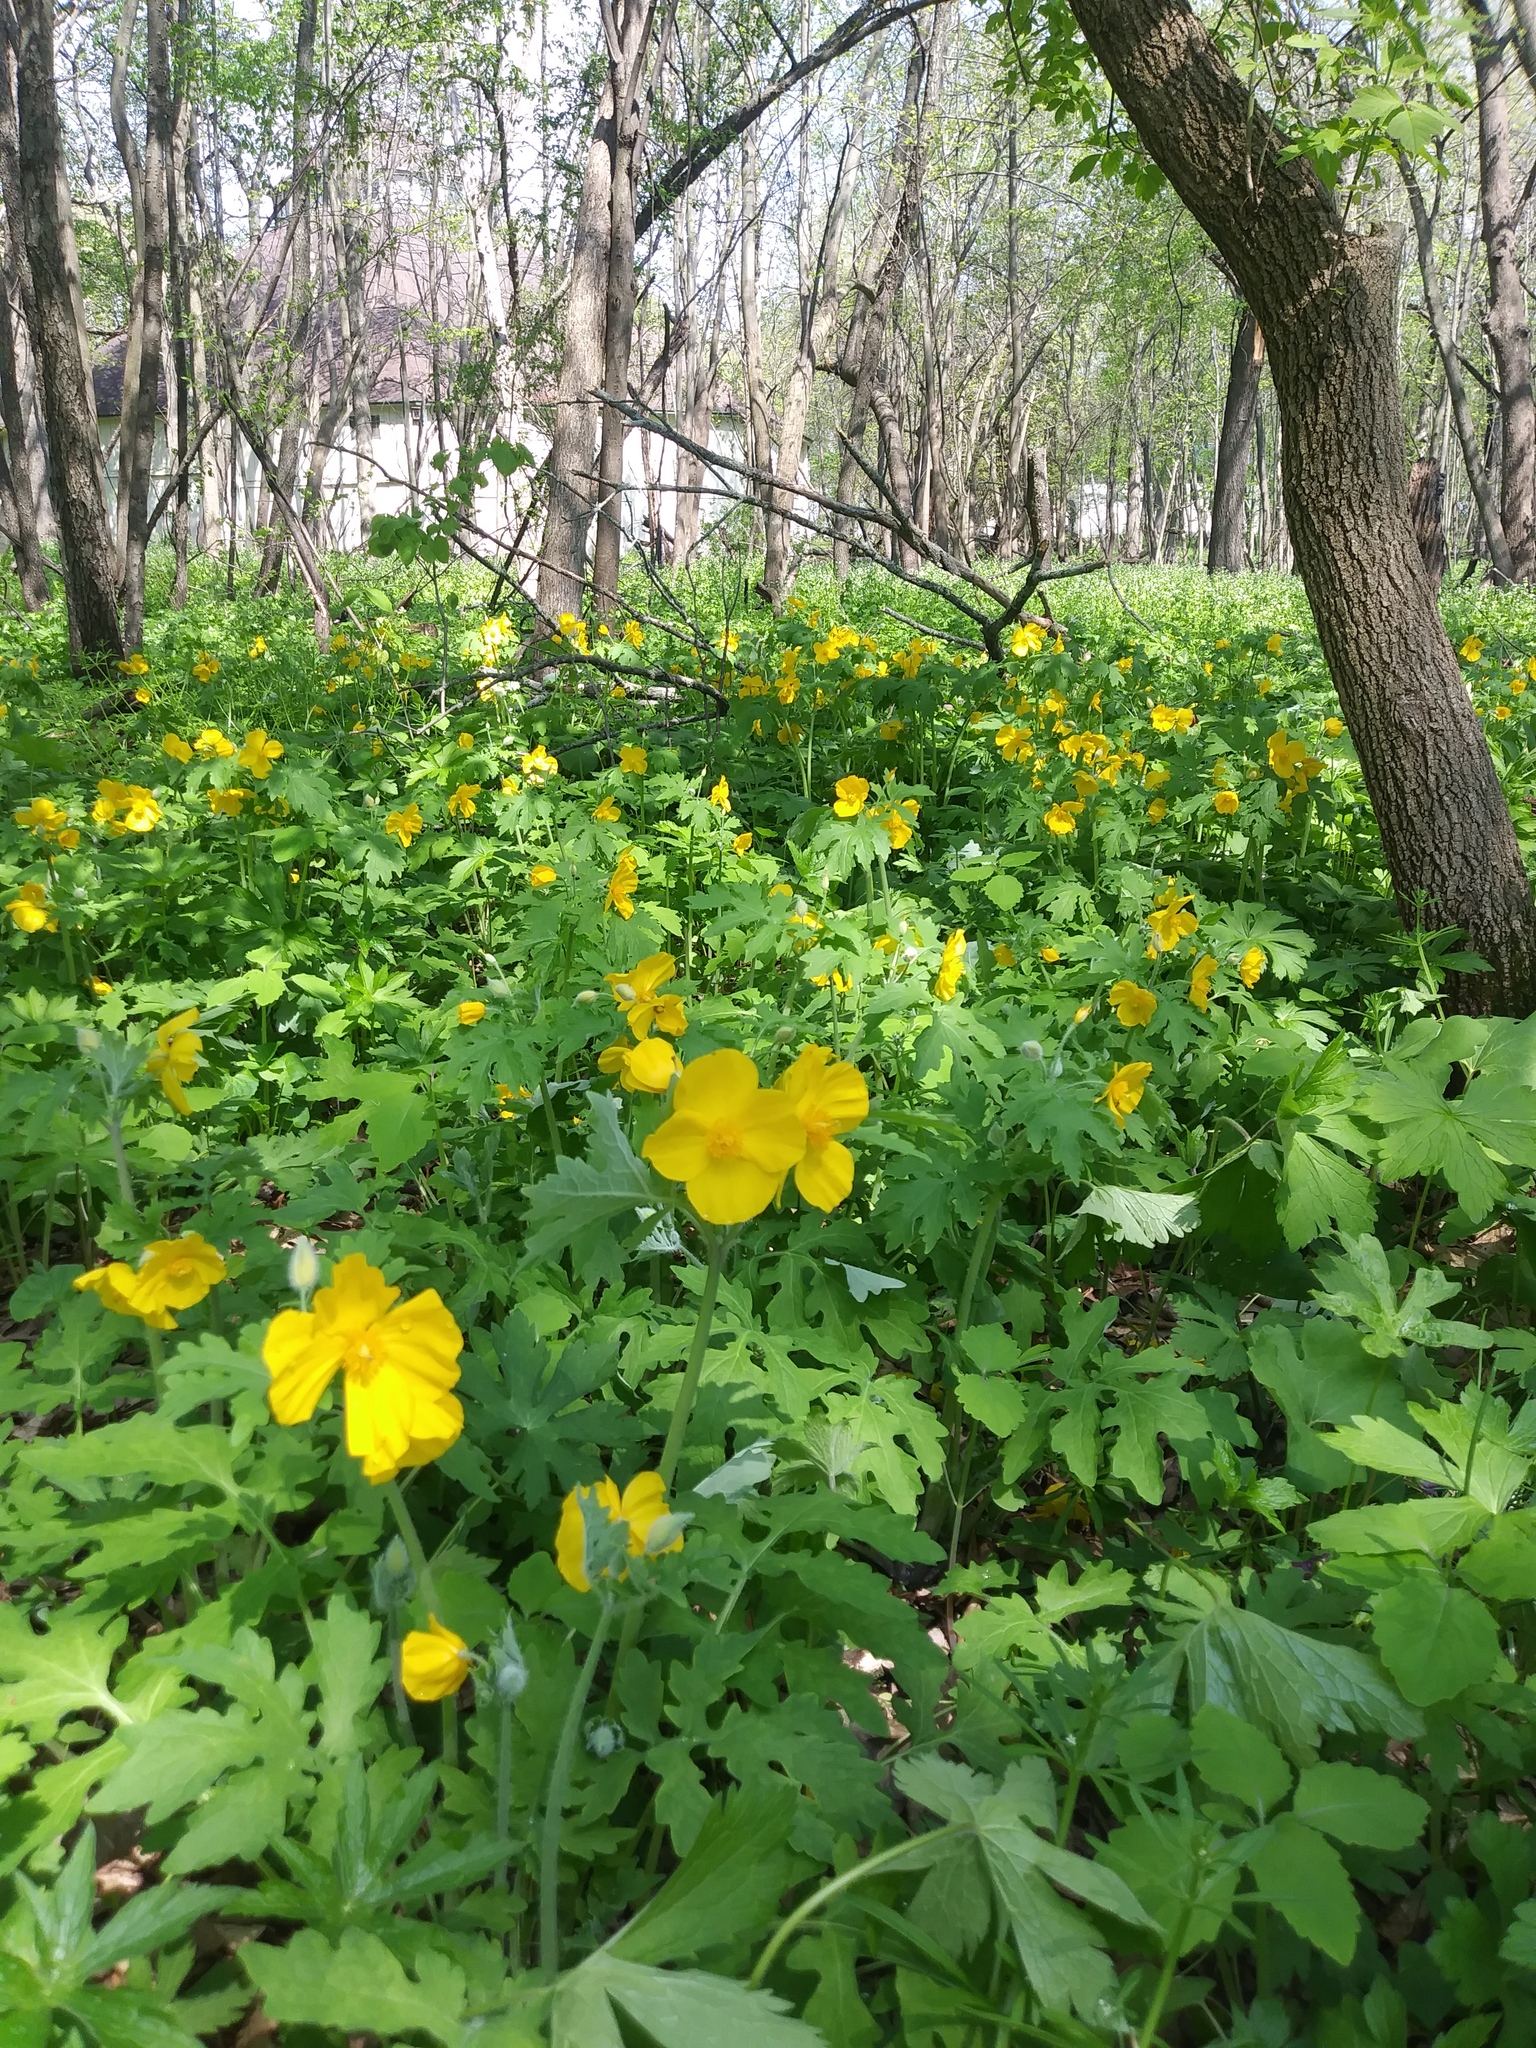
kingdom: Plantae
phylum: Tracheophyta
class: Magnoliopsida
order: Ranunculales
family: Papaveraceae
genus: Stylophorum
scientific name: Stylophorum diphyllum
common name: Celandine poppy
